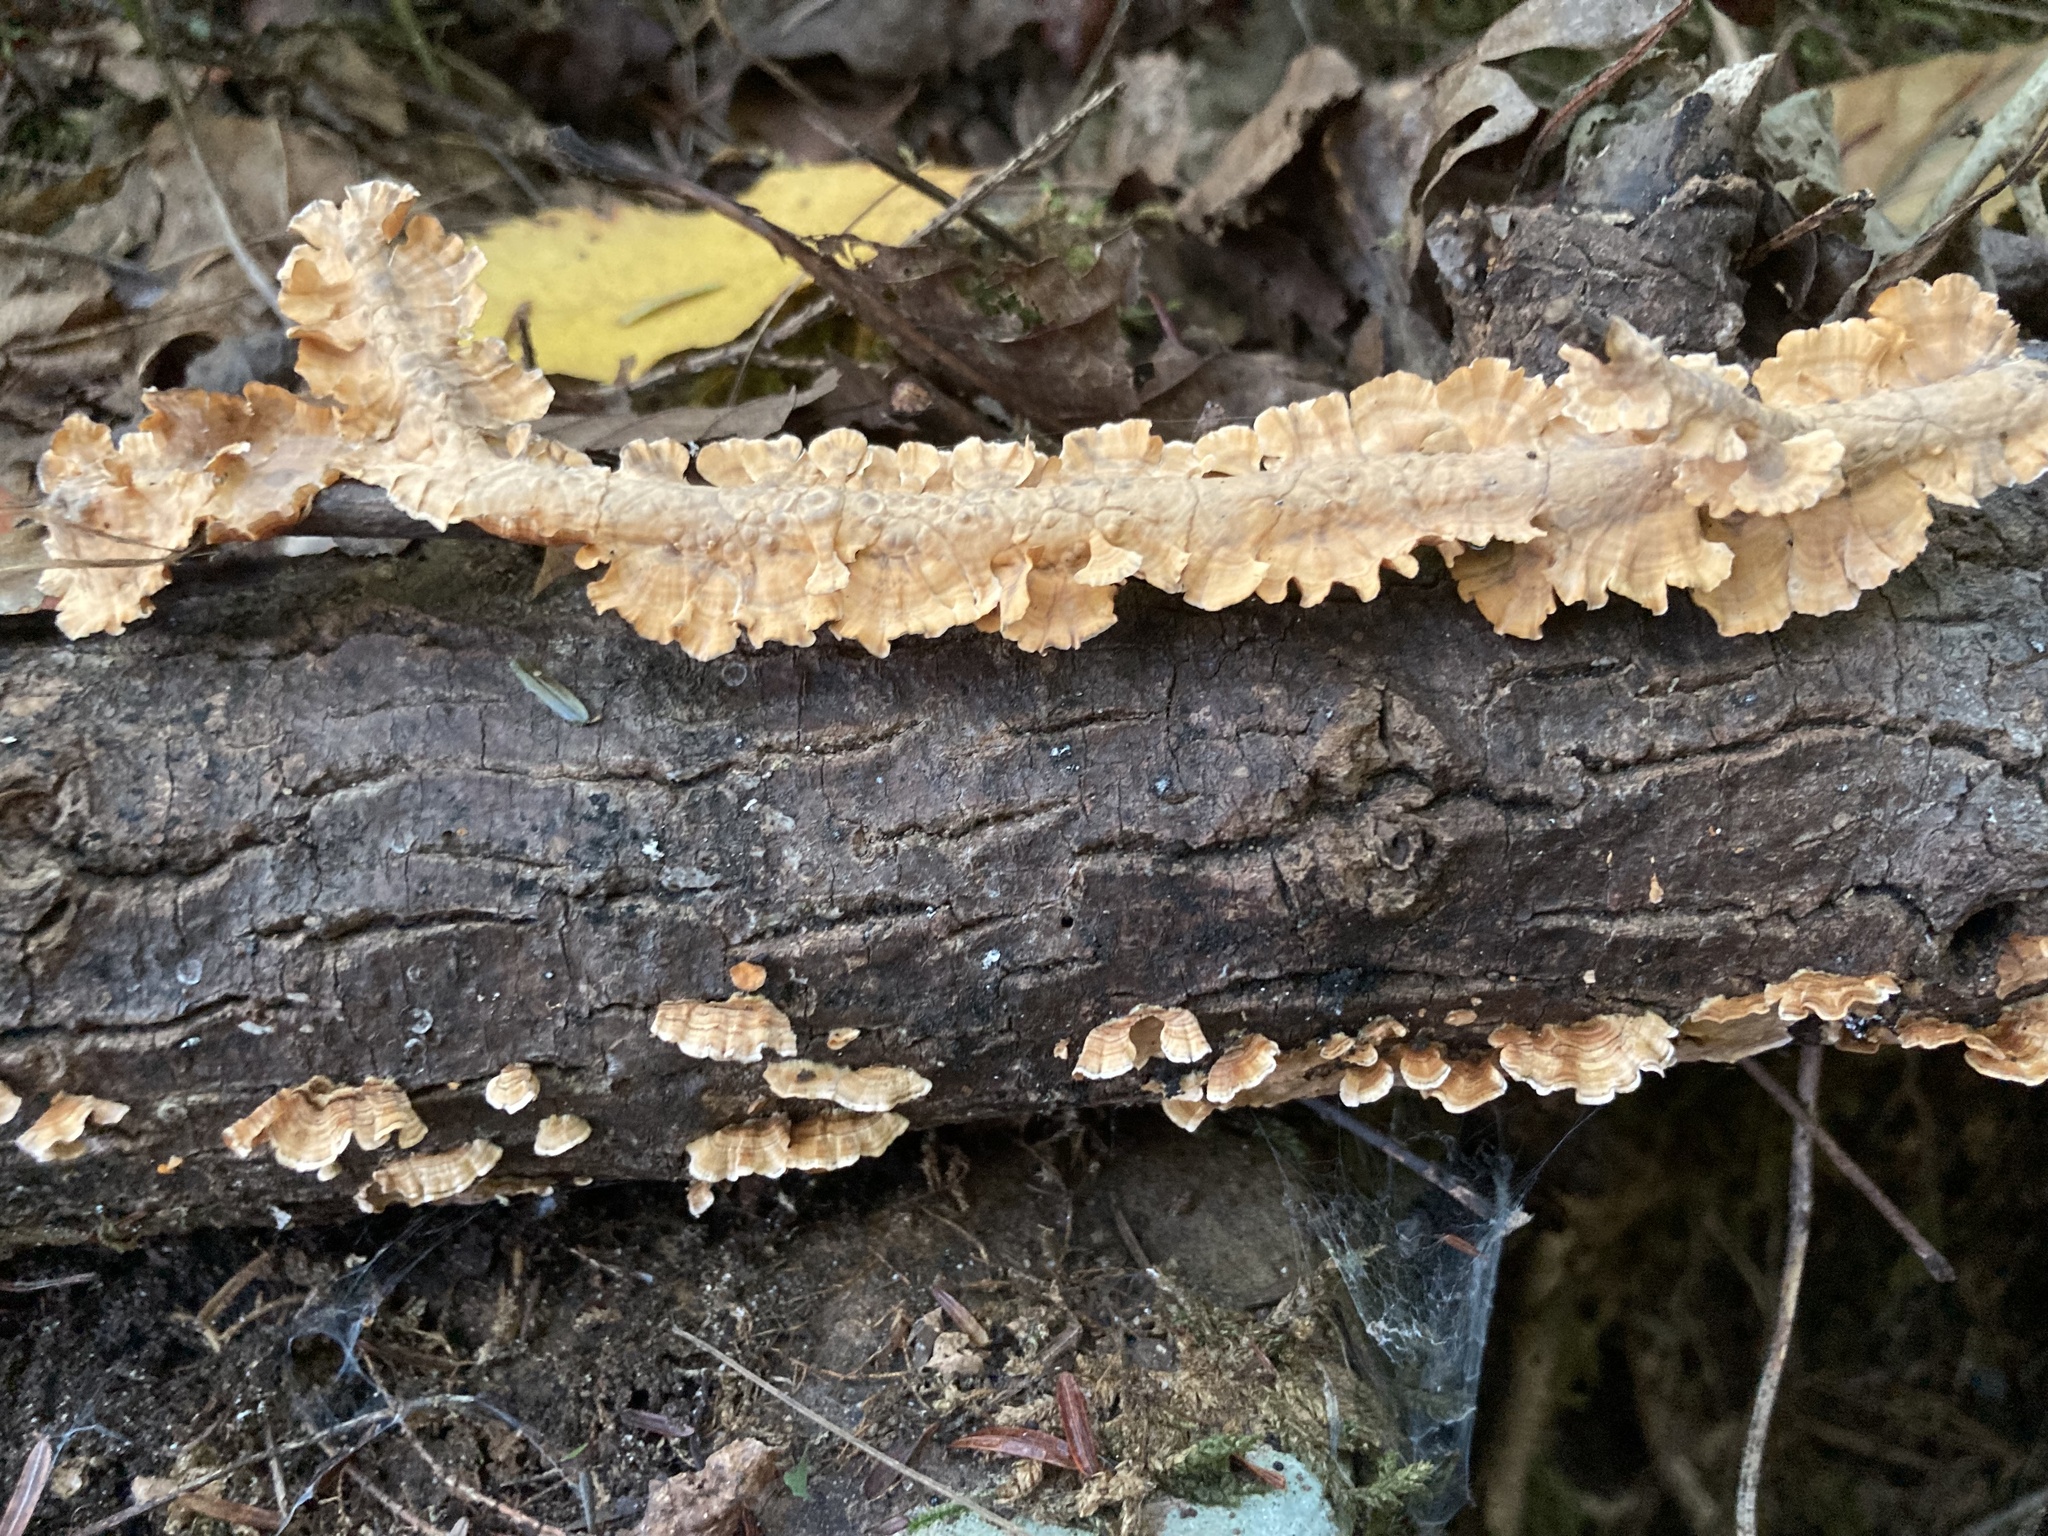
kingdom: Fungi
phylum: Basidiomycota
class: Agaricomycetes
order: Russulales
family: Stereaceae
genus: Stereum
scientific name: Stereum complicatum
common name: Crowded parchment
